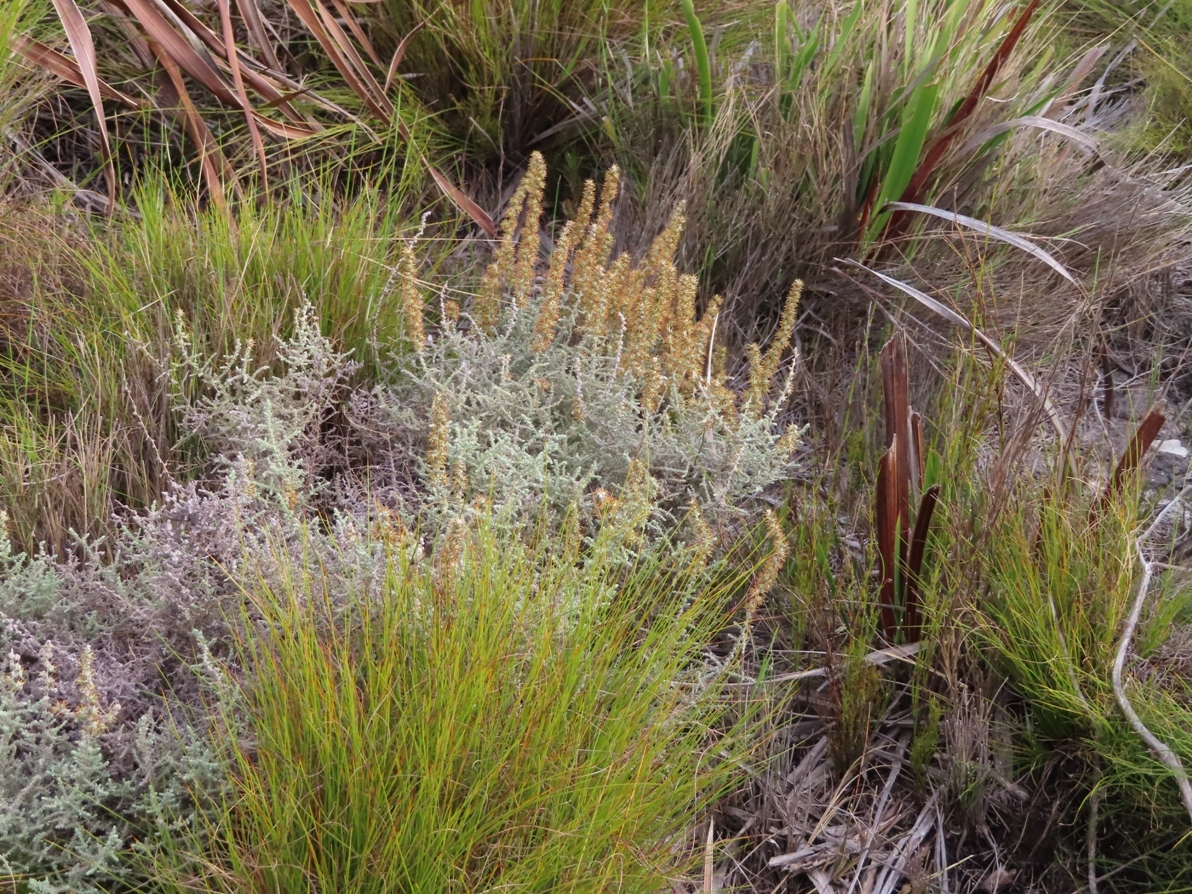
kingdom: Plantae
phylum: Tracheophyta
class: Magnoliopsida
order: Asterales
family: Asteraceae
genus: Seriphium
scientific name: Seriphium cinereum
